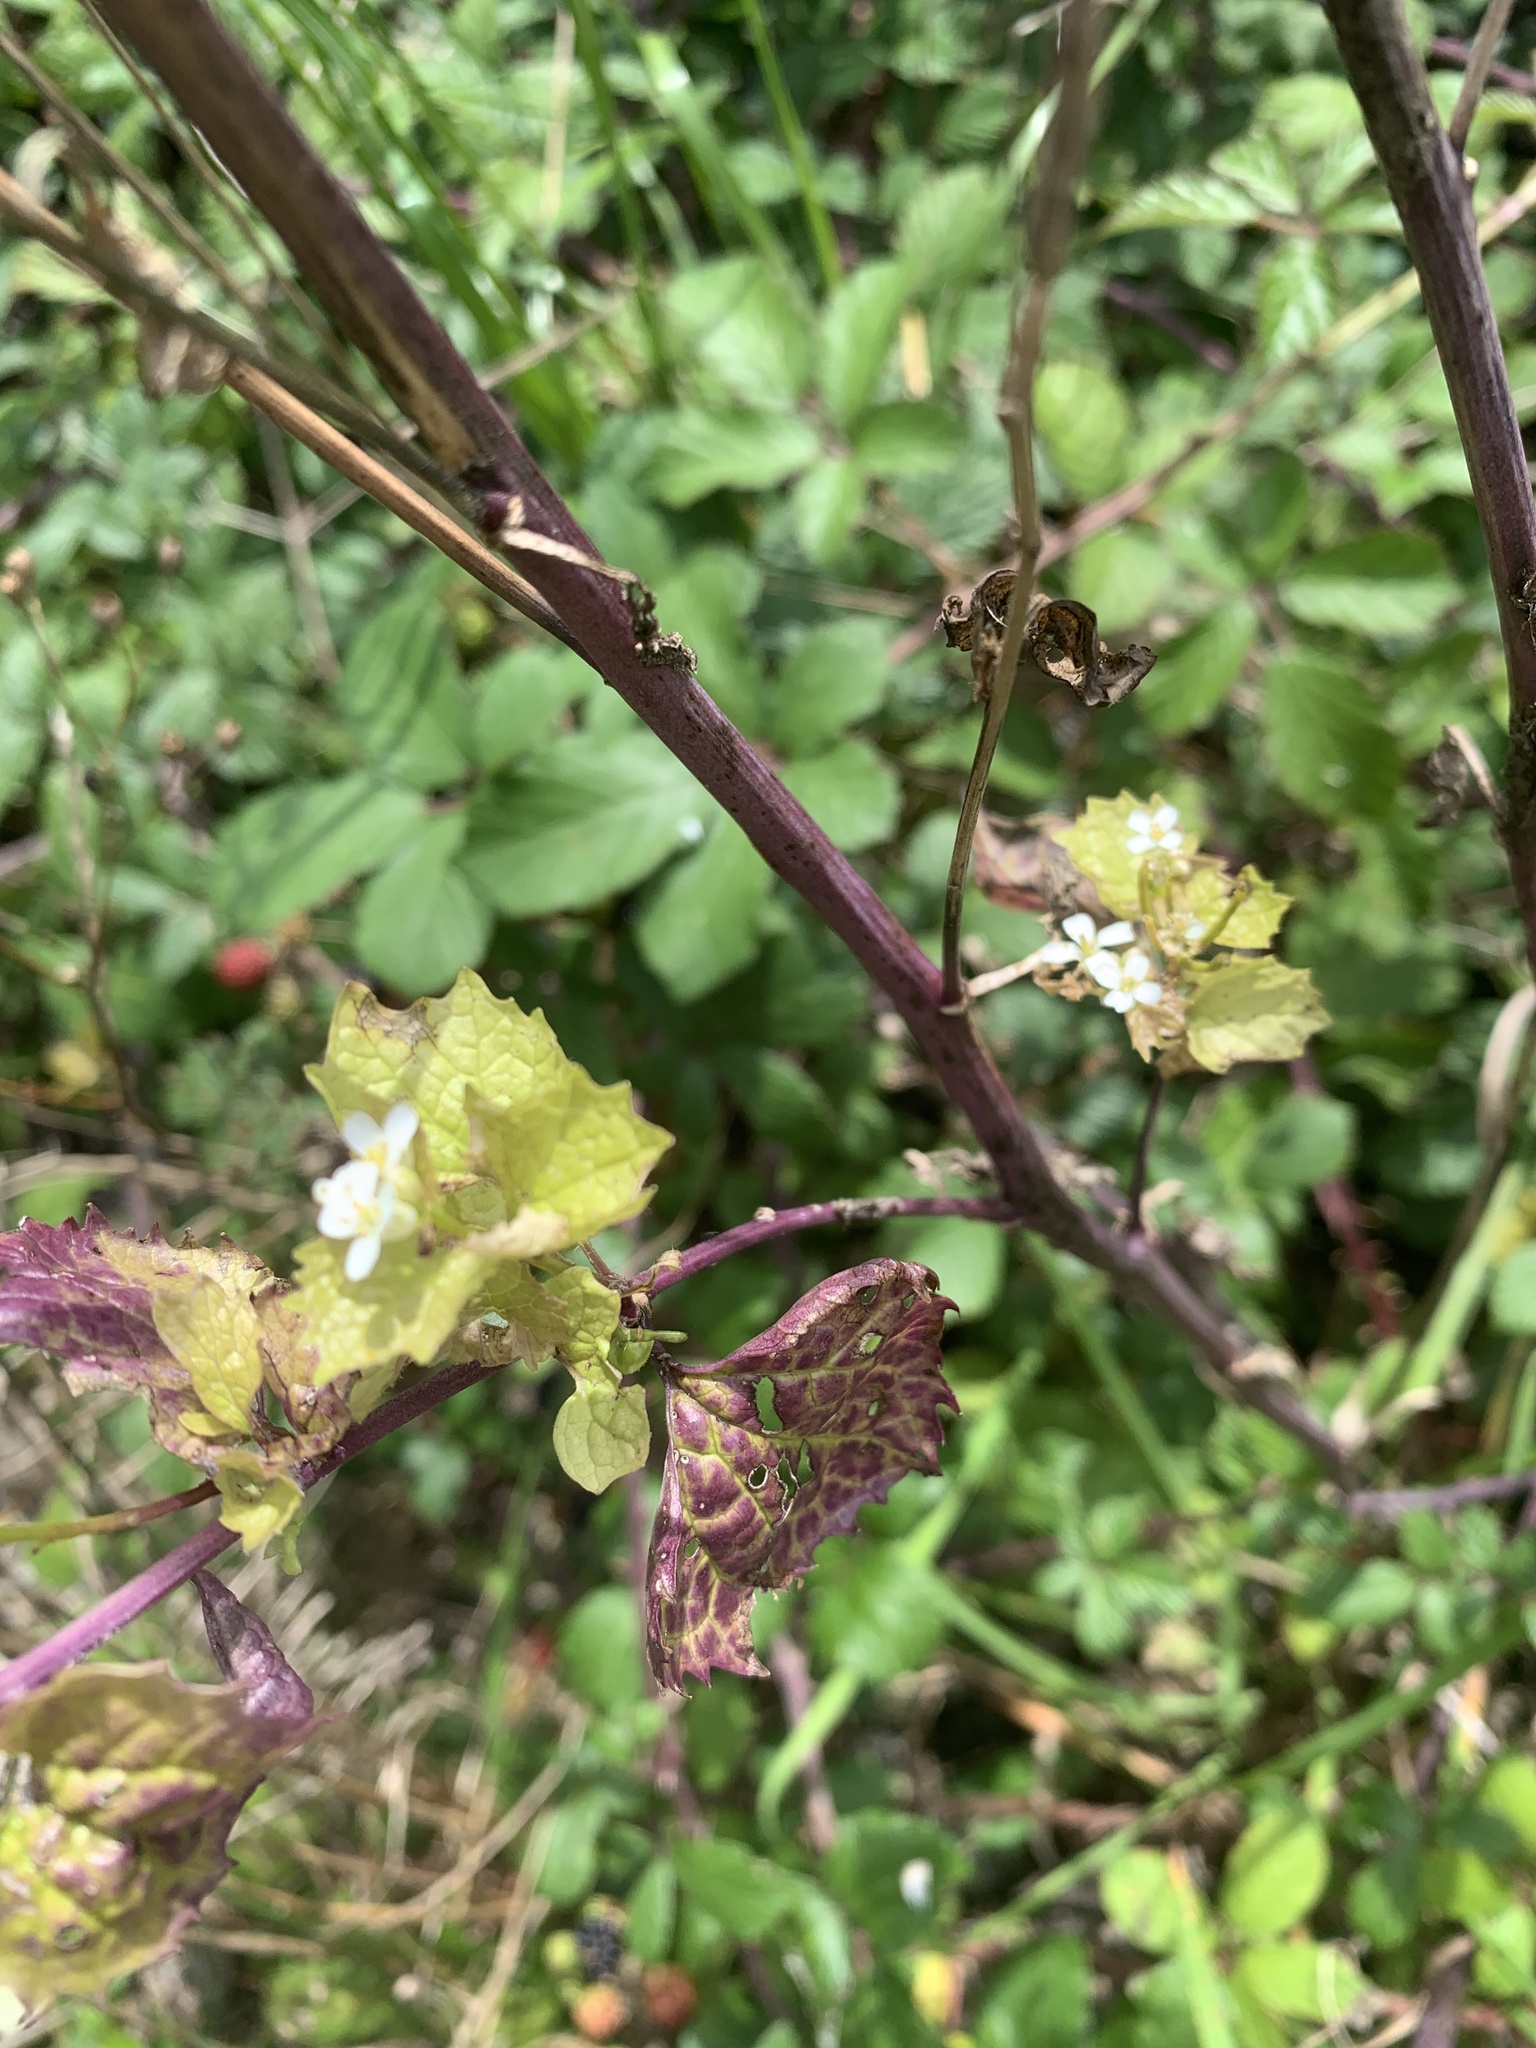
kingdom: Plantae
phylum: Tracheophyta
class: Magnoliopsida
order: Brassicales
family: Brassicaceae
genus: Alliaria
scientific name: Alliaria petiolata
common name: Garlic mustard
